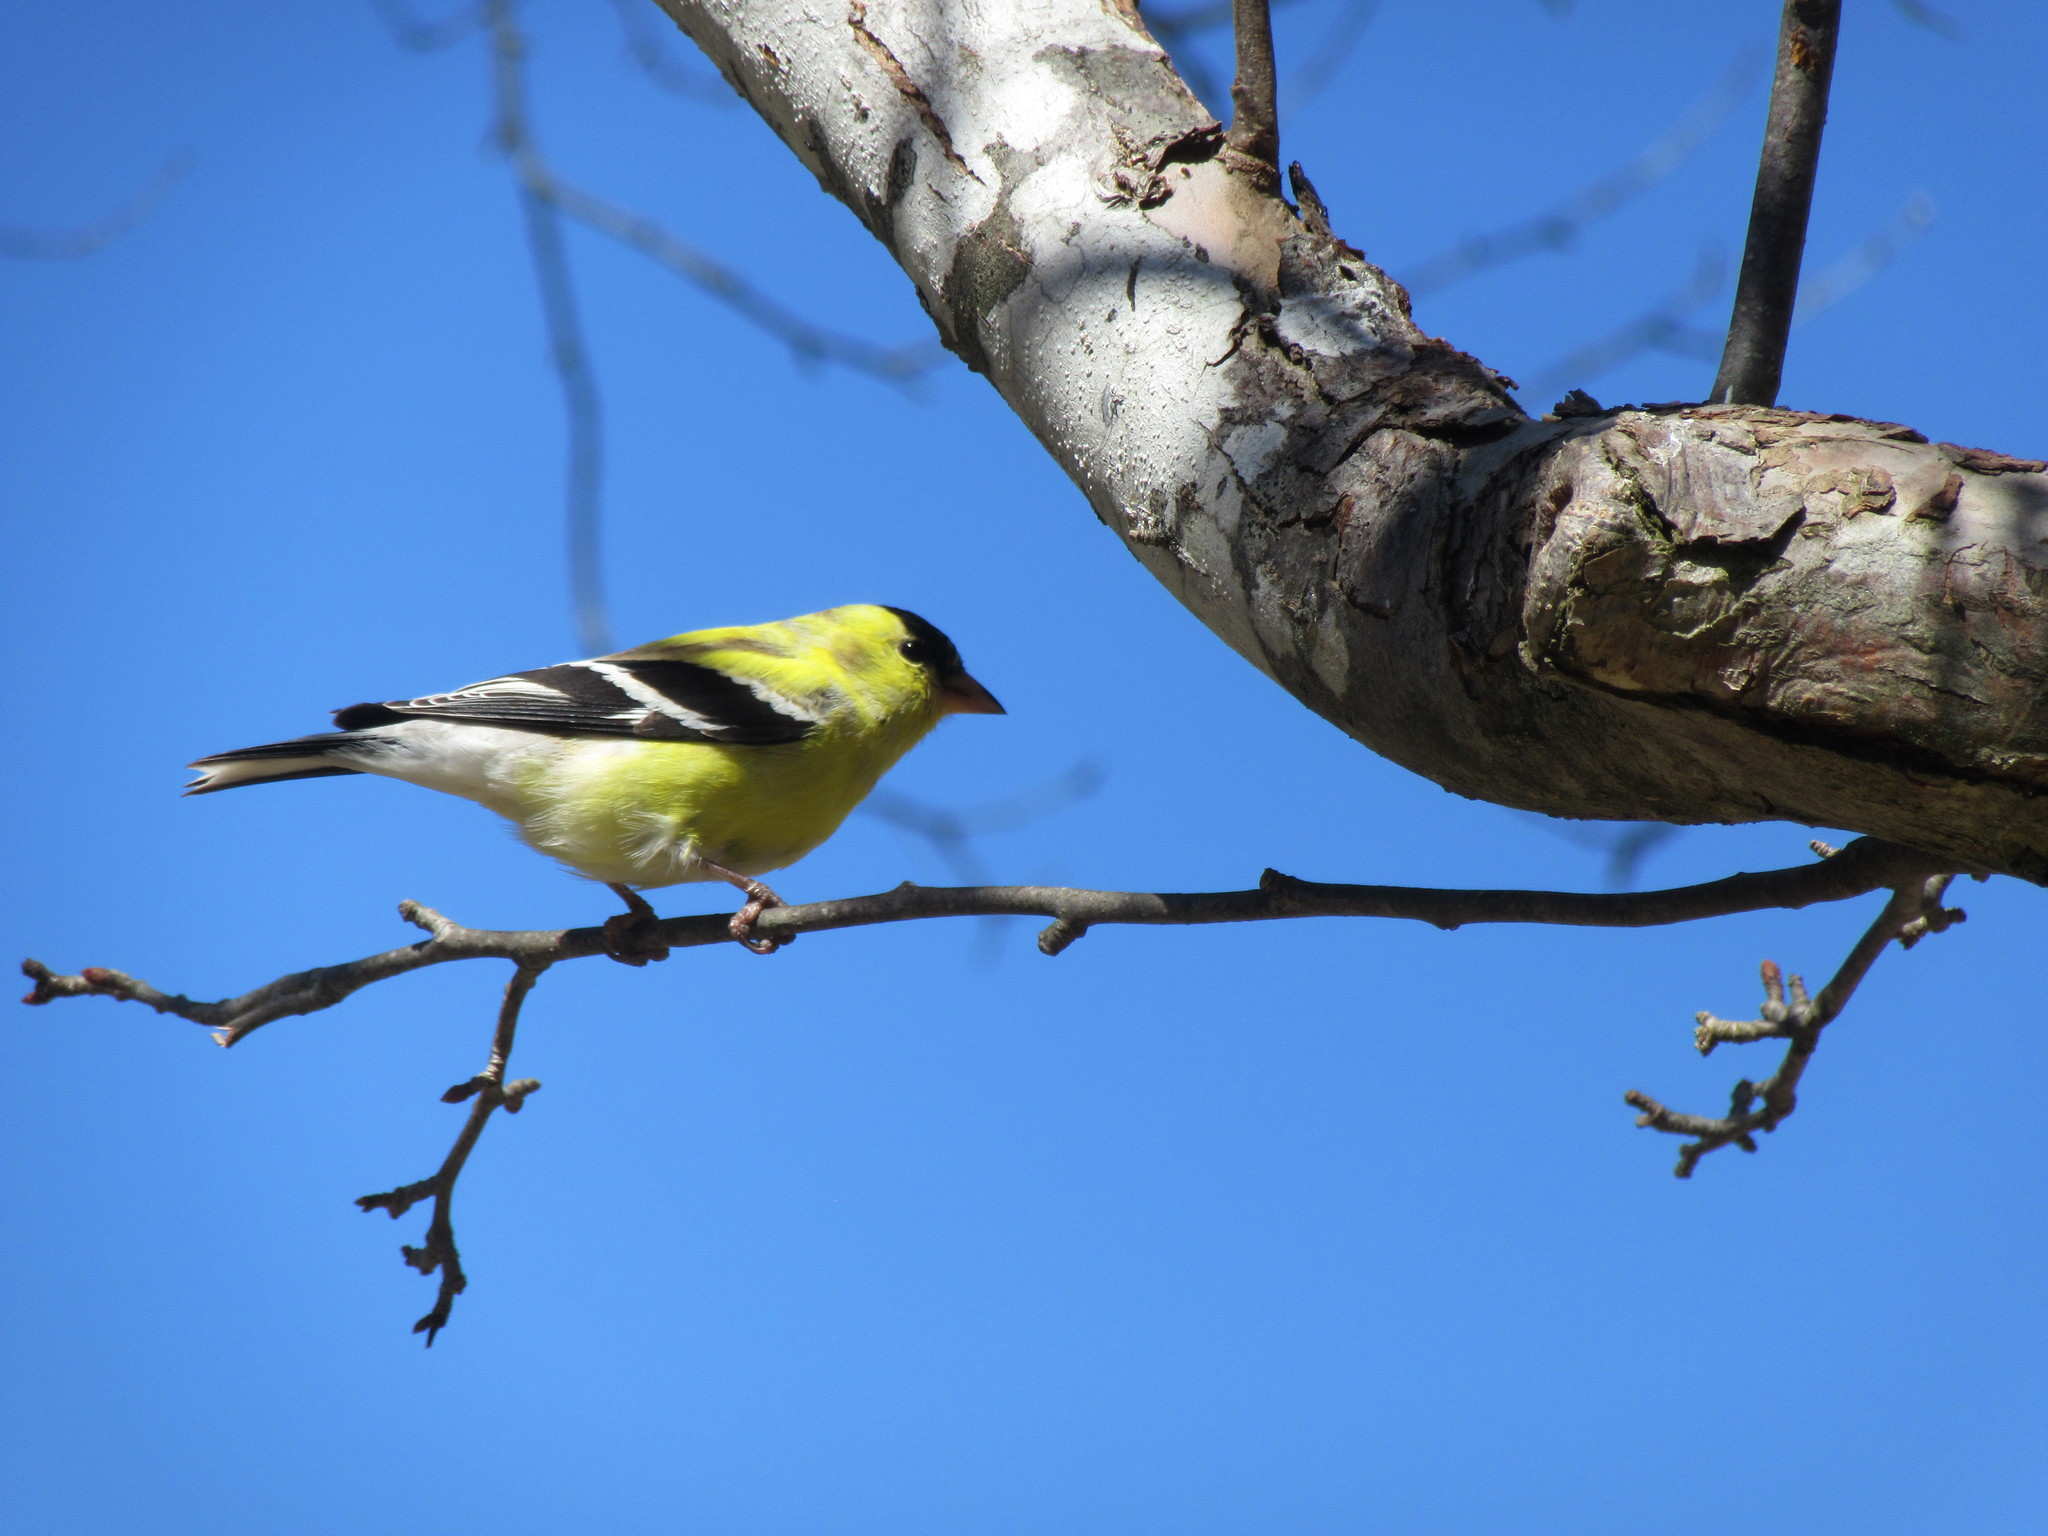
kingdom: Animalia
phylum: Chordata
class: Aves
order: Passeriformes
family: Fringillidae
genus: Spinus
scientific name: Spinus tristis
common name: American goldfinch
